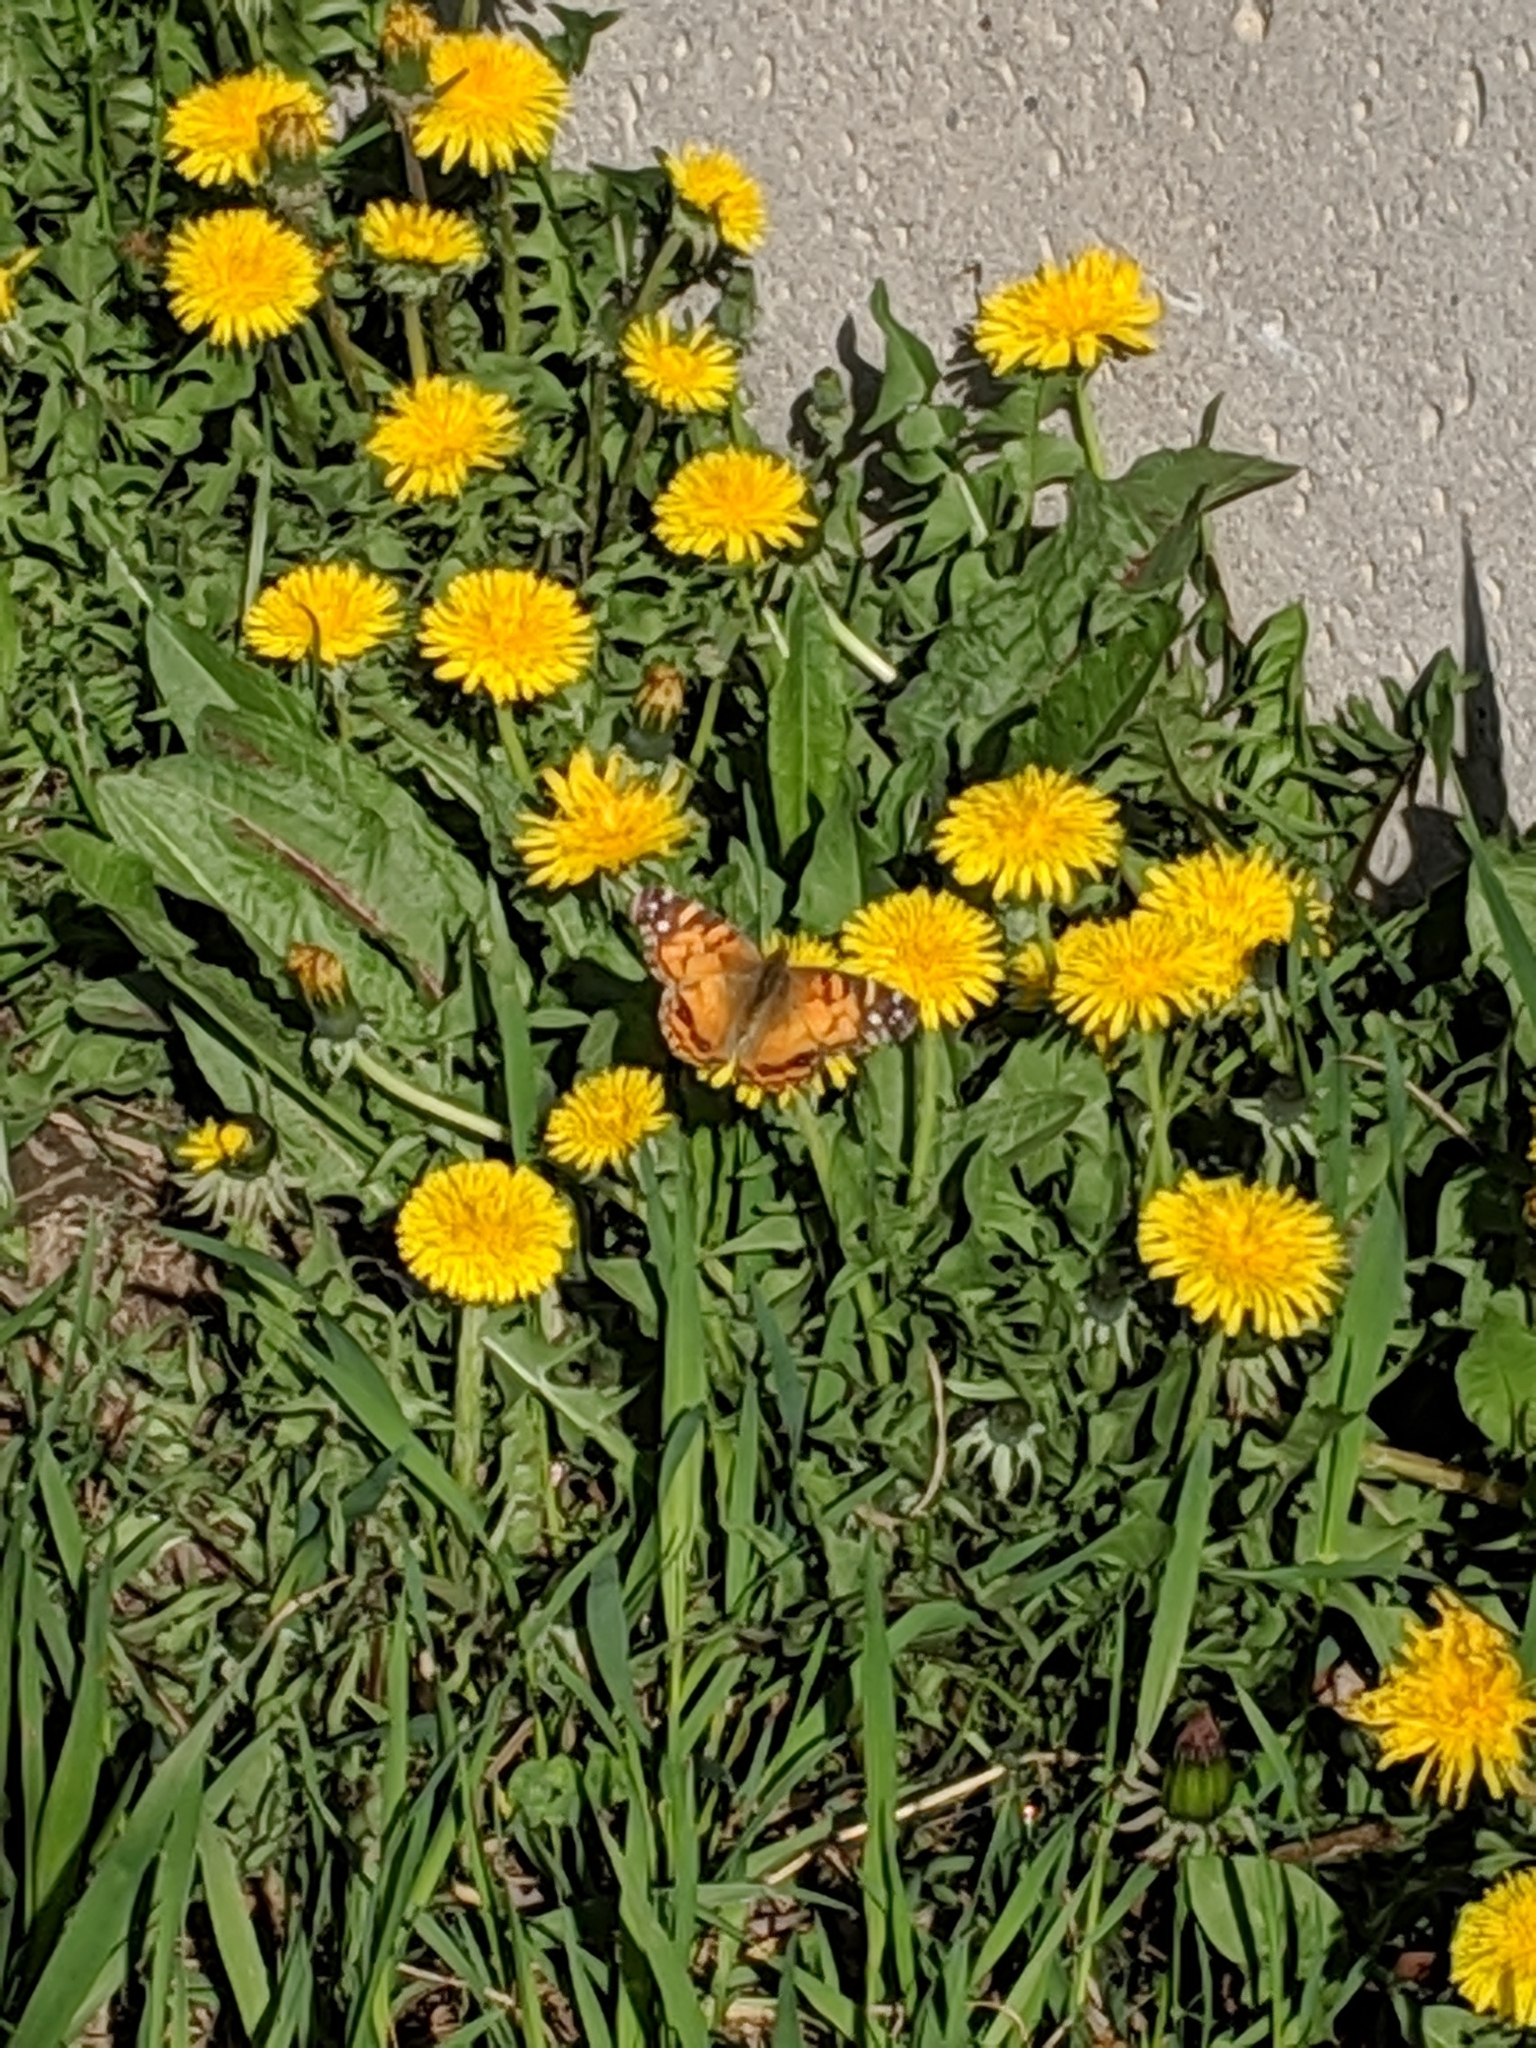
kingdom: Animalia
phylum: Arthropoda
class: Insecta
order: Lepidoptera
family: Nymphalidae
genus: Vanessa
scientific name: Vanessa virginiensis
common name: American lady
